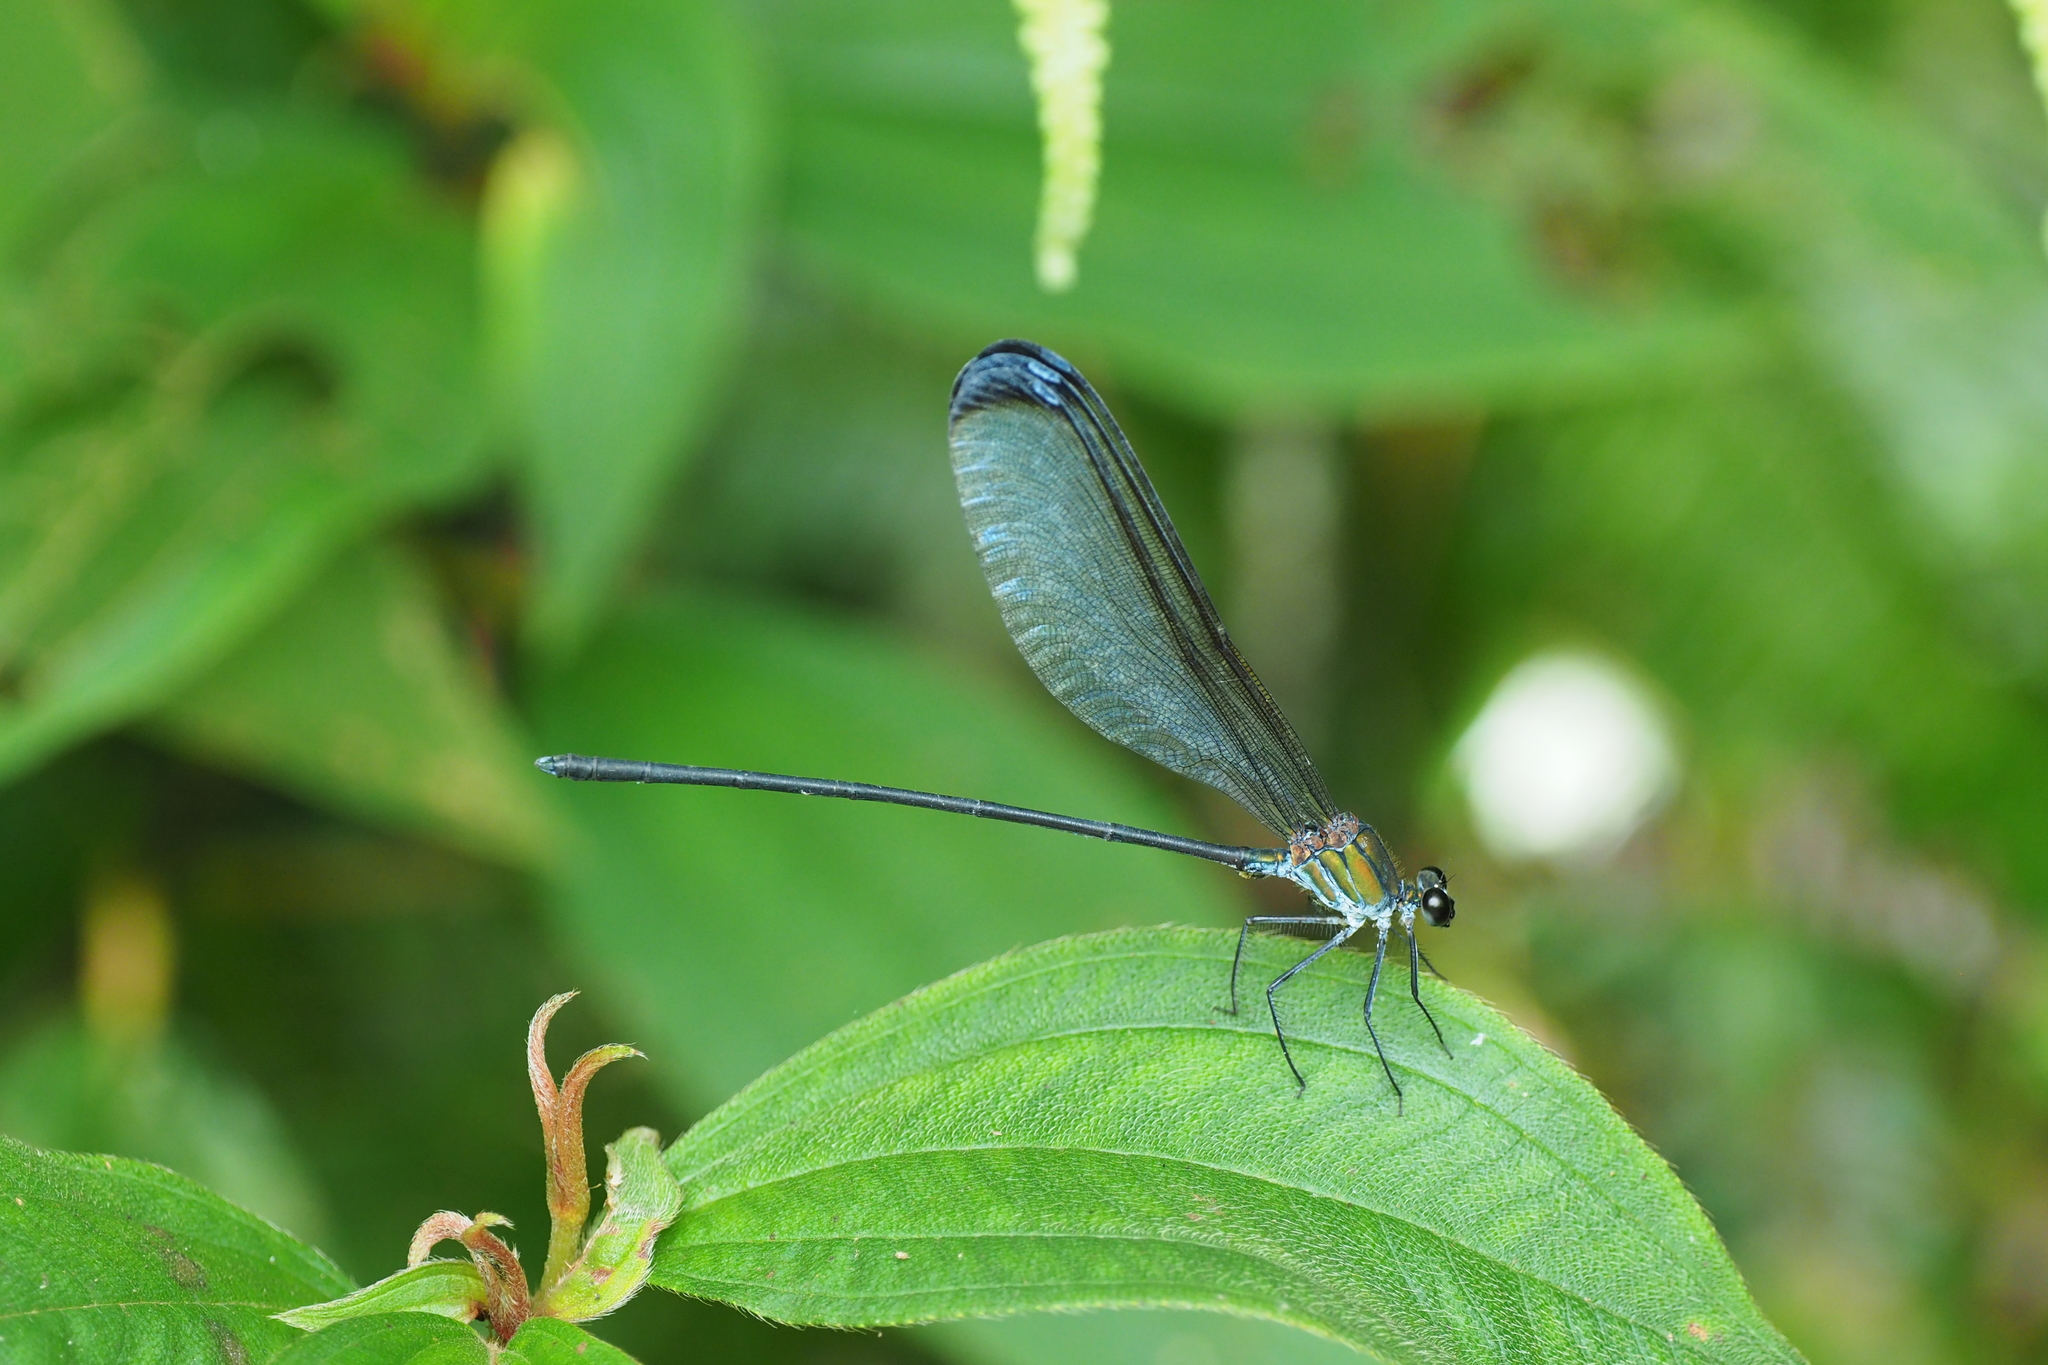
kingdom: Animalia
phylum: Arthropoda
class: Insecta
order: Odonata
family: Calopterygidae
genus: Psolodesmus
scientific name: Psolodesmus mandarinus
